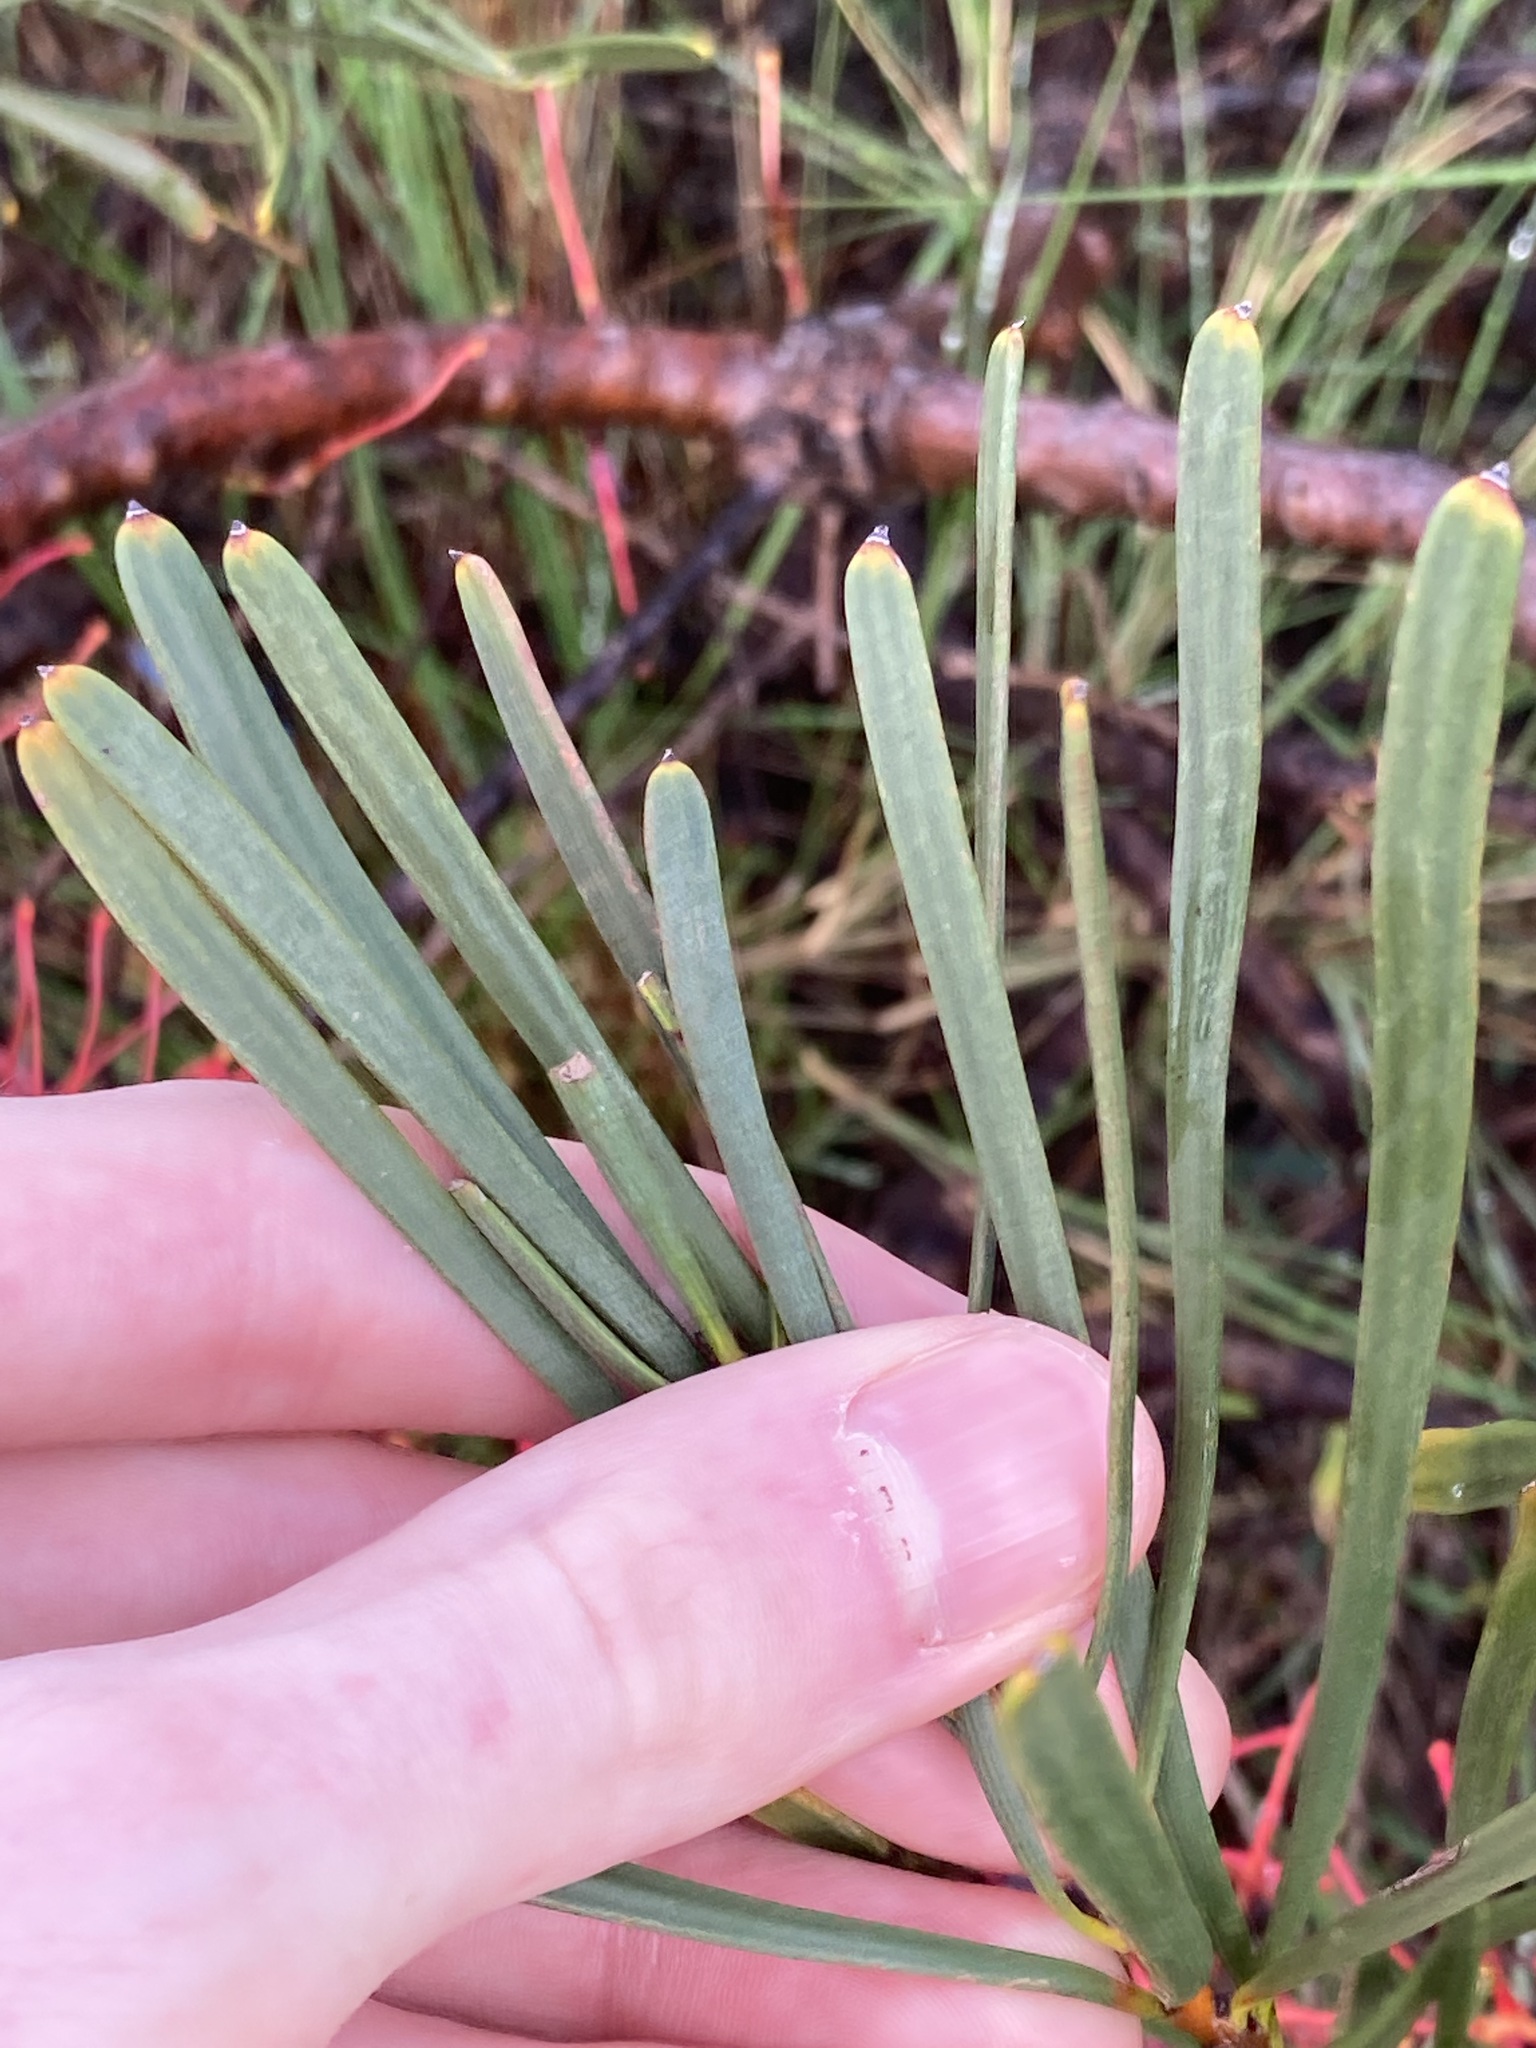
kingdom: Plantae
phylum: Tracheophyta
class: Magnoliopsida
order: Proteales
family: Proteaceae
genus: Hakea
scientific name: Hakea orthorrhyncha
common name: Bird beak hakea
